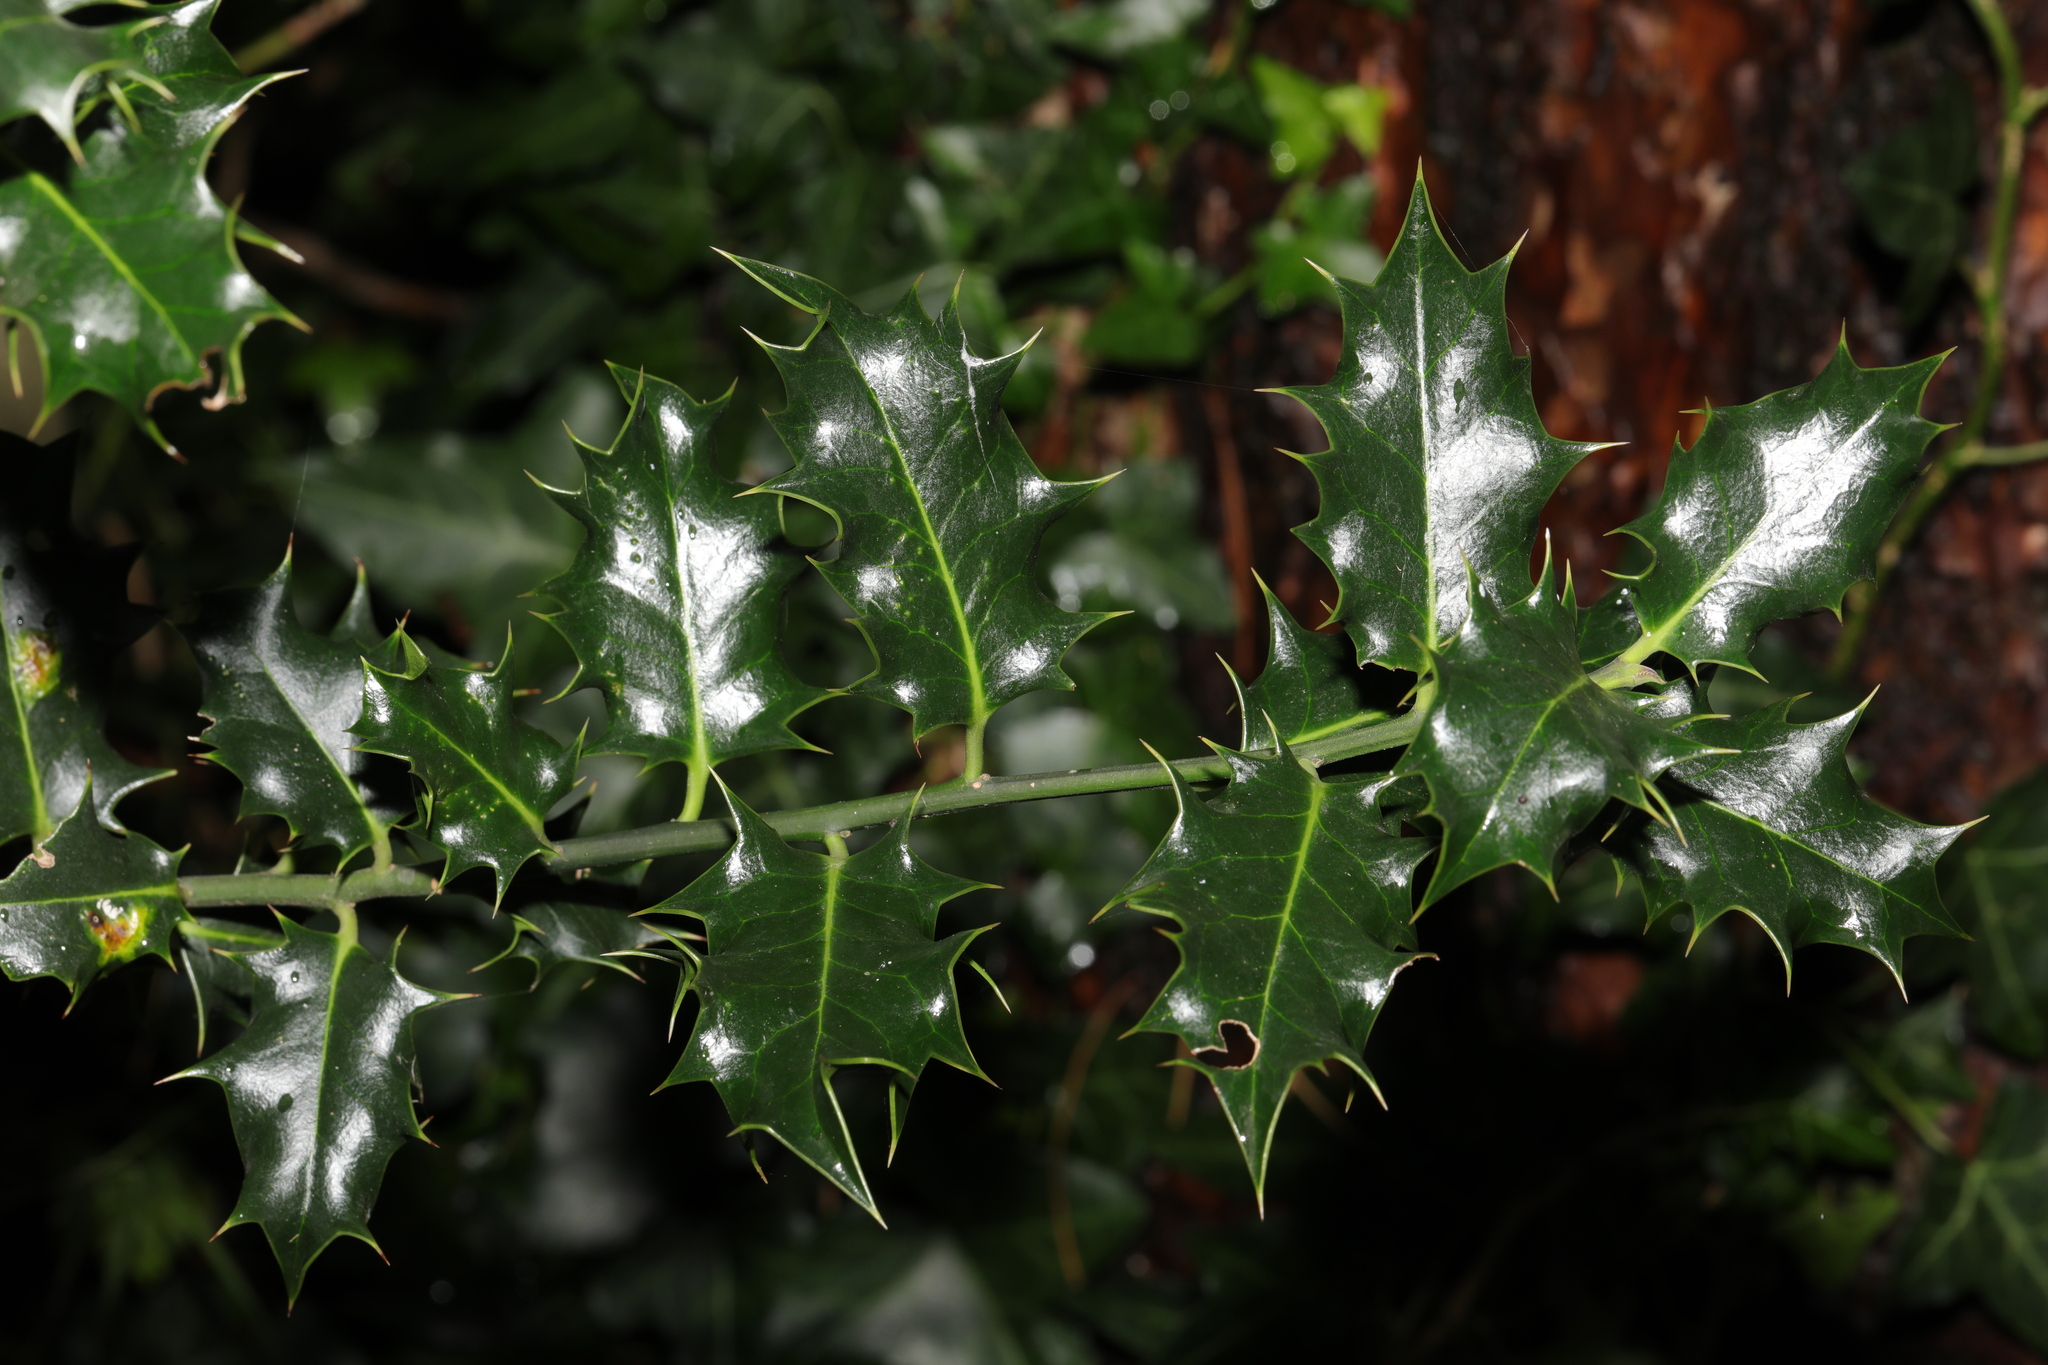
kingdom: Plantae
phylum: Tracheophyta
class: Magnoliopsida
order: Aquifoliales
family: Aquifoliaceae
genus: Ilex
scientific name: Ilex aquifolium
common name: English holly
